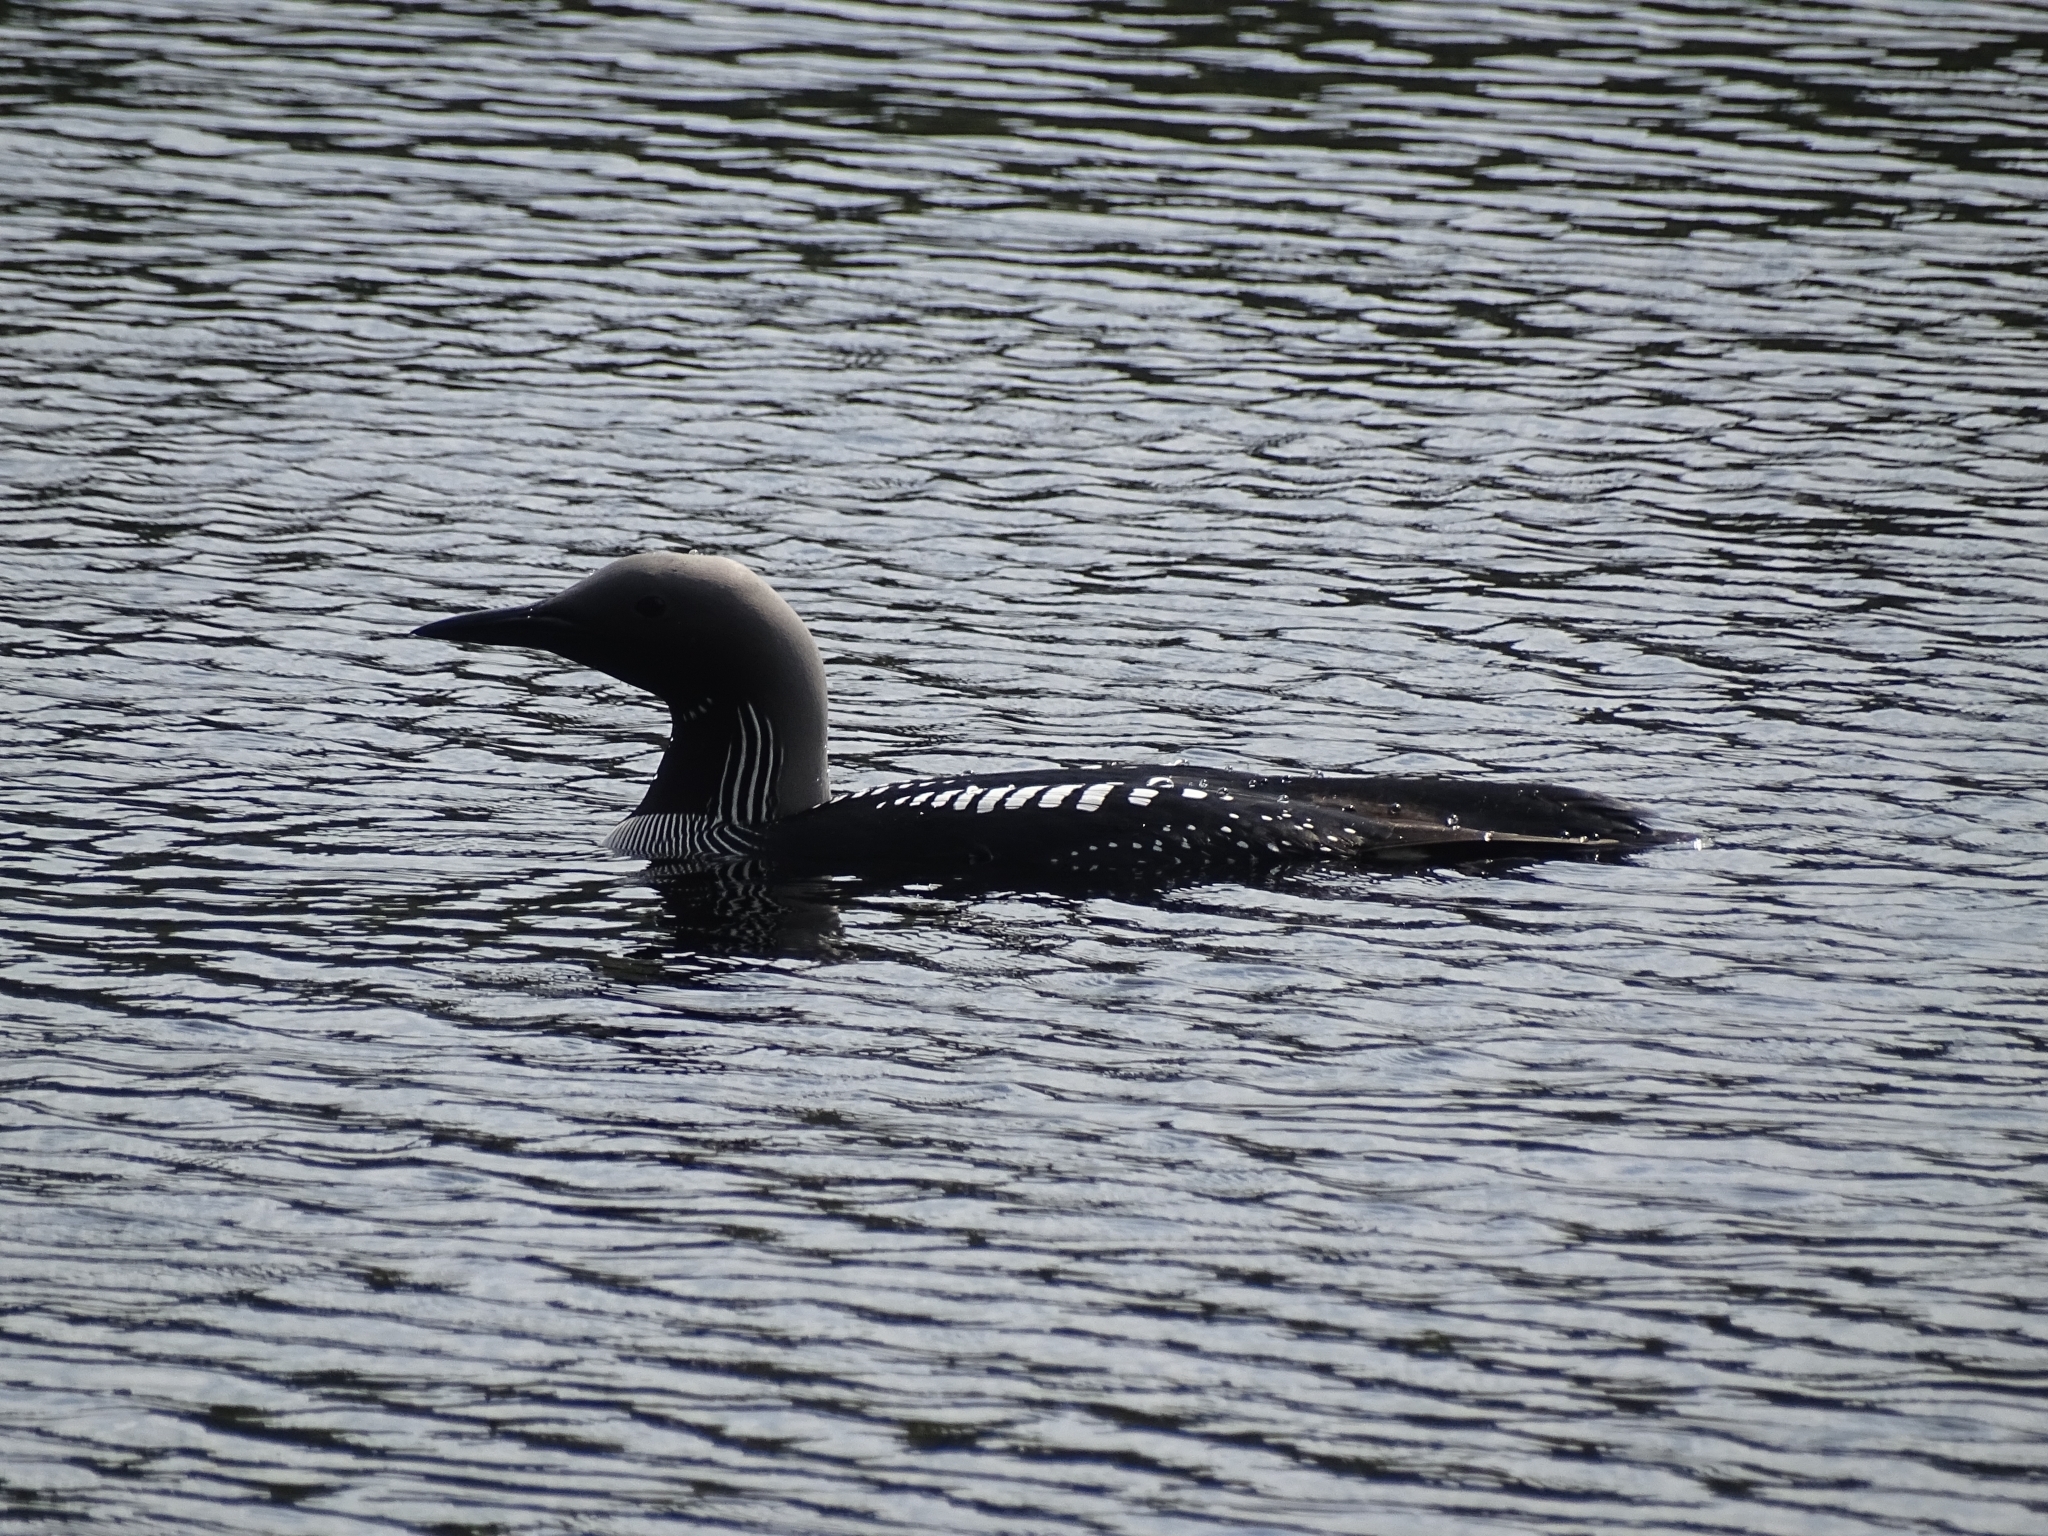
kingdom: Animalia
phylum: Chordata
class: Aves
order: Gaviiformes
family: Gaviidae
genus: Gavia
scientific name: Gavia arctica
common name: Black-throated loon
